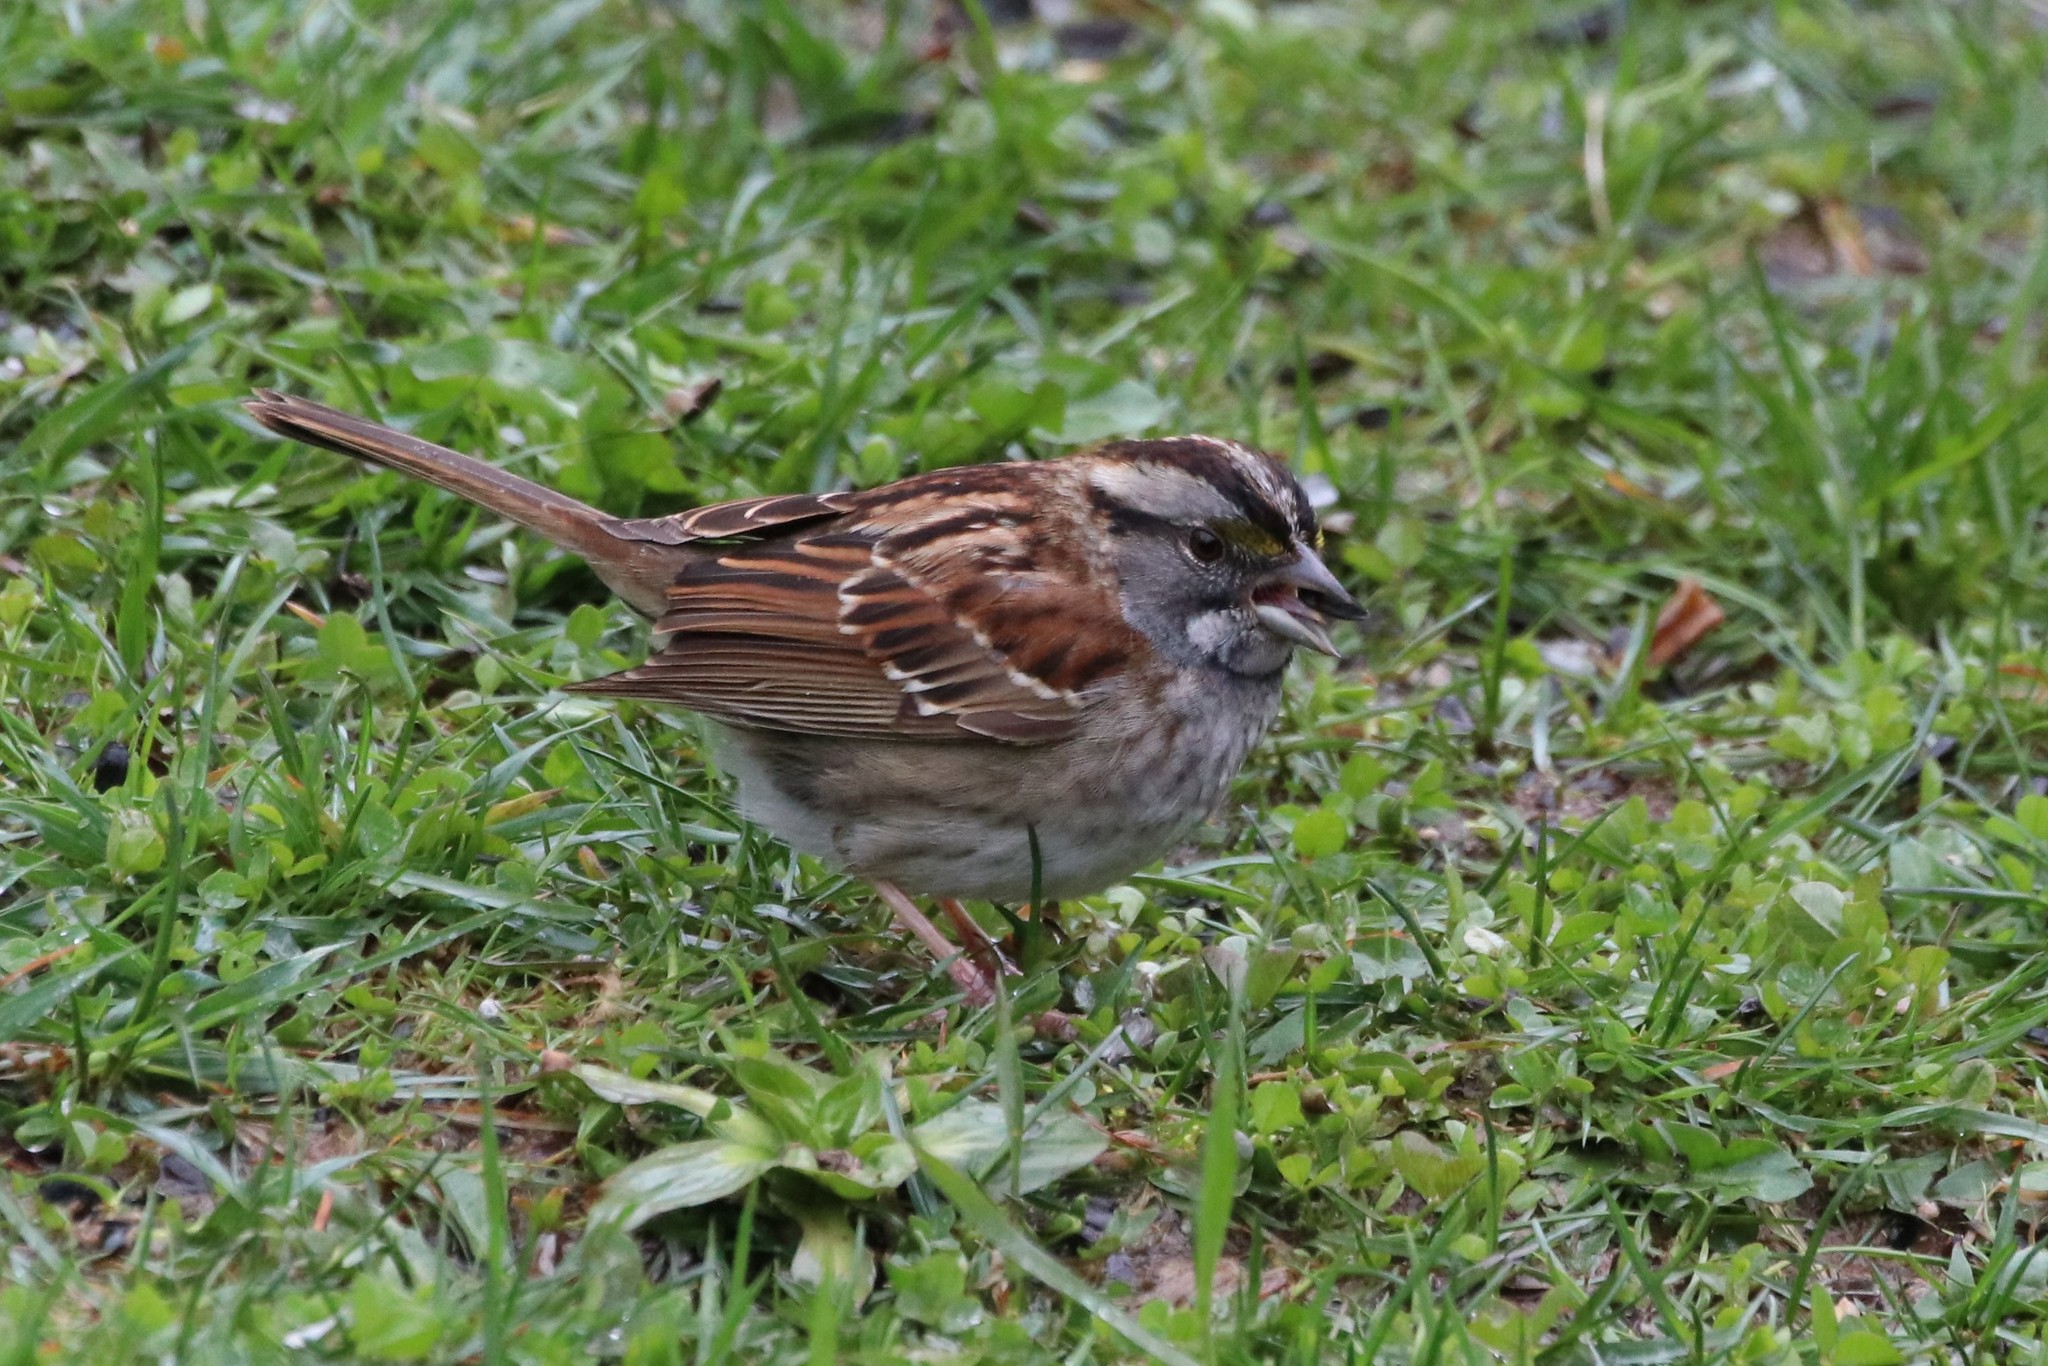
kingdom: Animalia
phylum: Chordata
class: Aves
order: Passeriformes
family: Passerellidae
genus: Zonotrichia
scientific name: Zonotrichia albicollis
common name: White-throated sparrow
